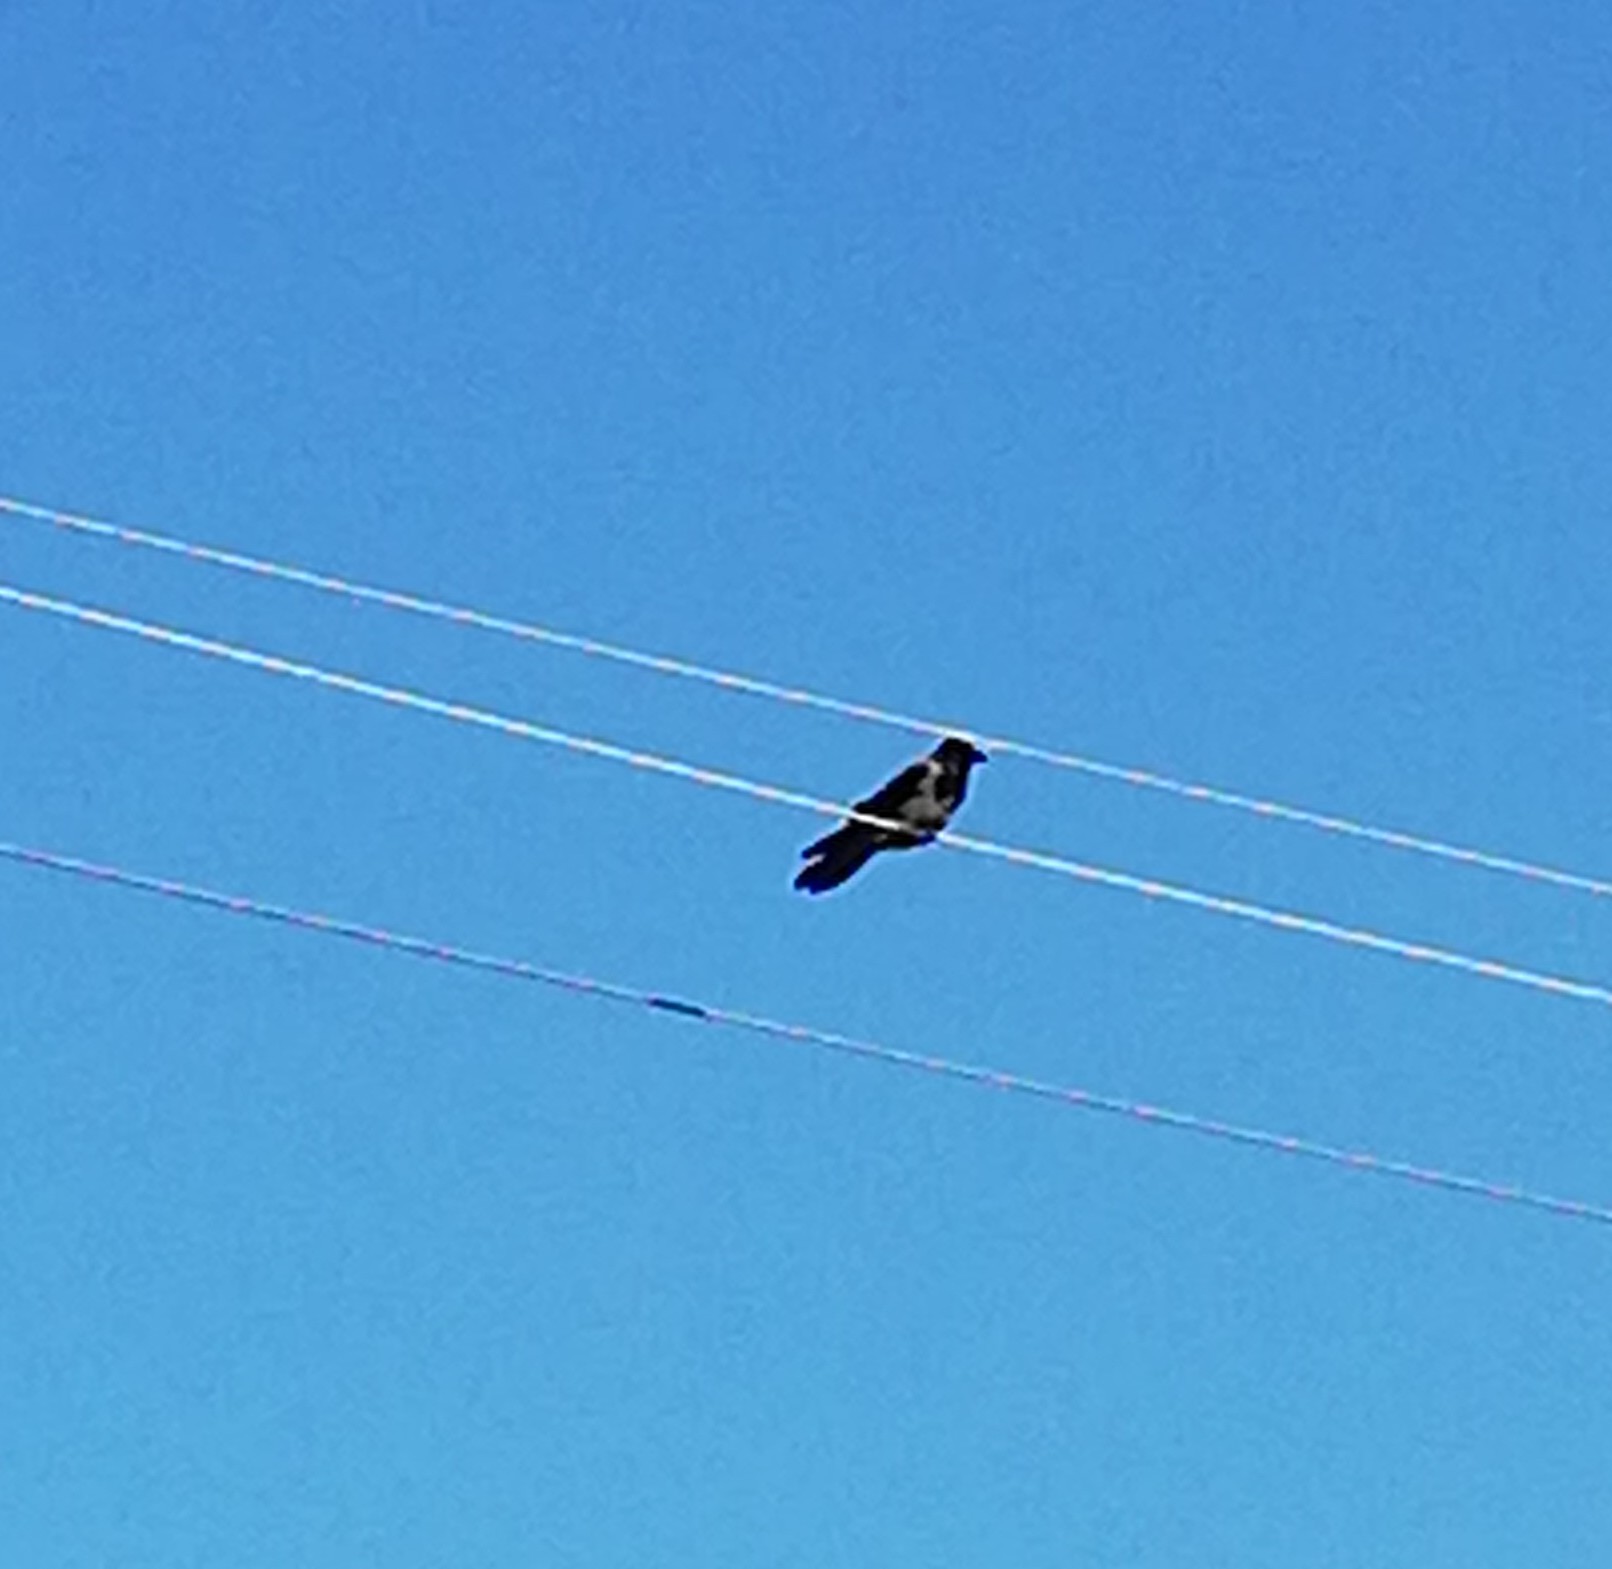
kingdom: Animalia
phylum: Chordata
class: Aves
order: Passeriformes
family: Corvidae
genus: Corvus
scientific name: Corvus cornix
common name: Hooded crow
